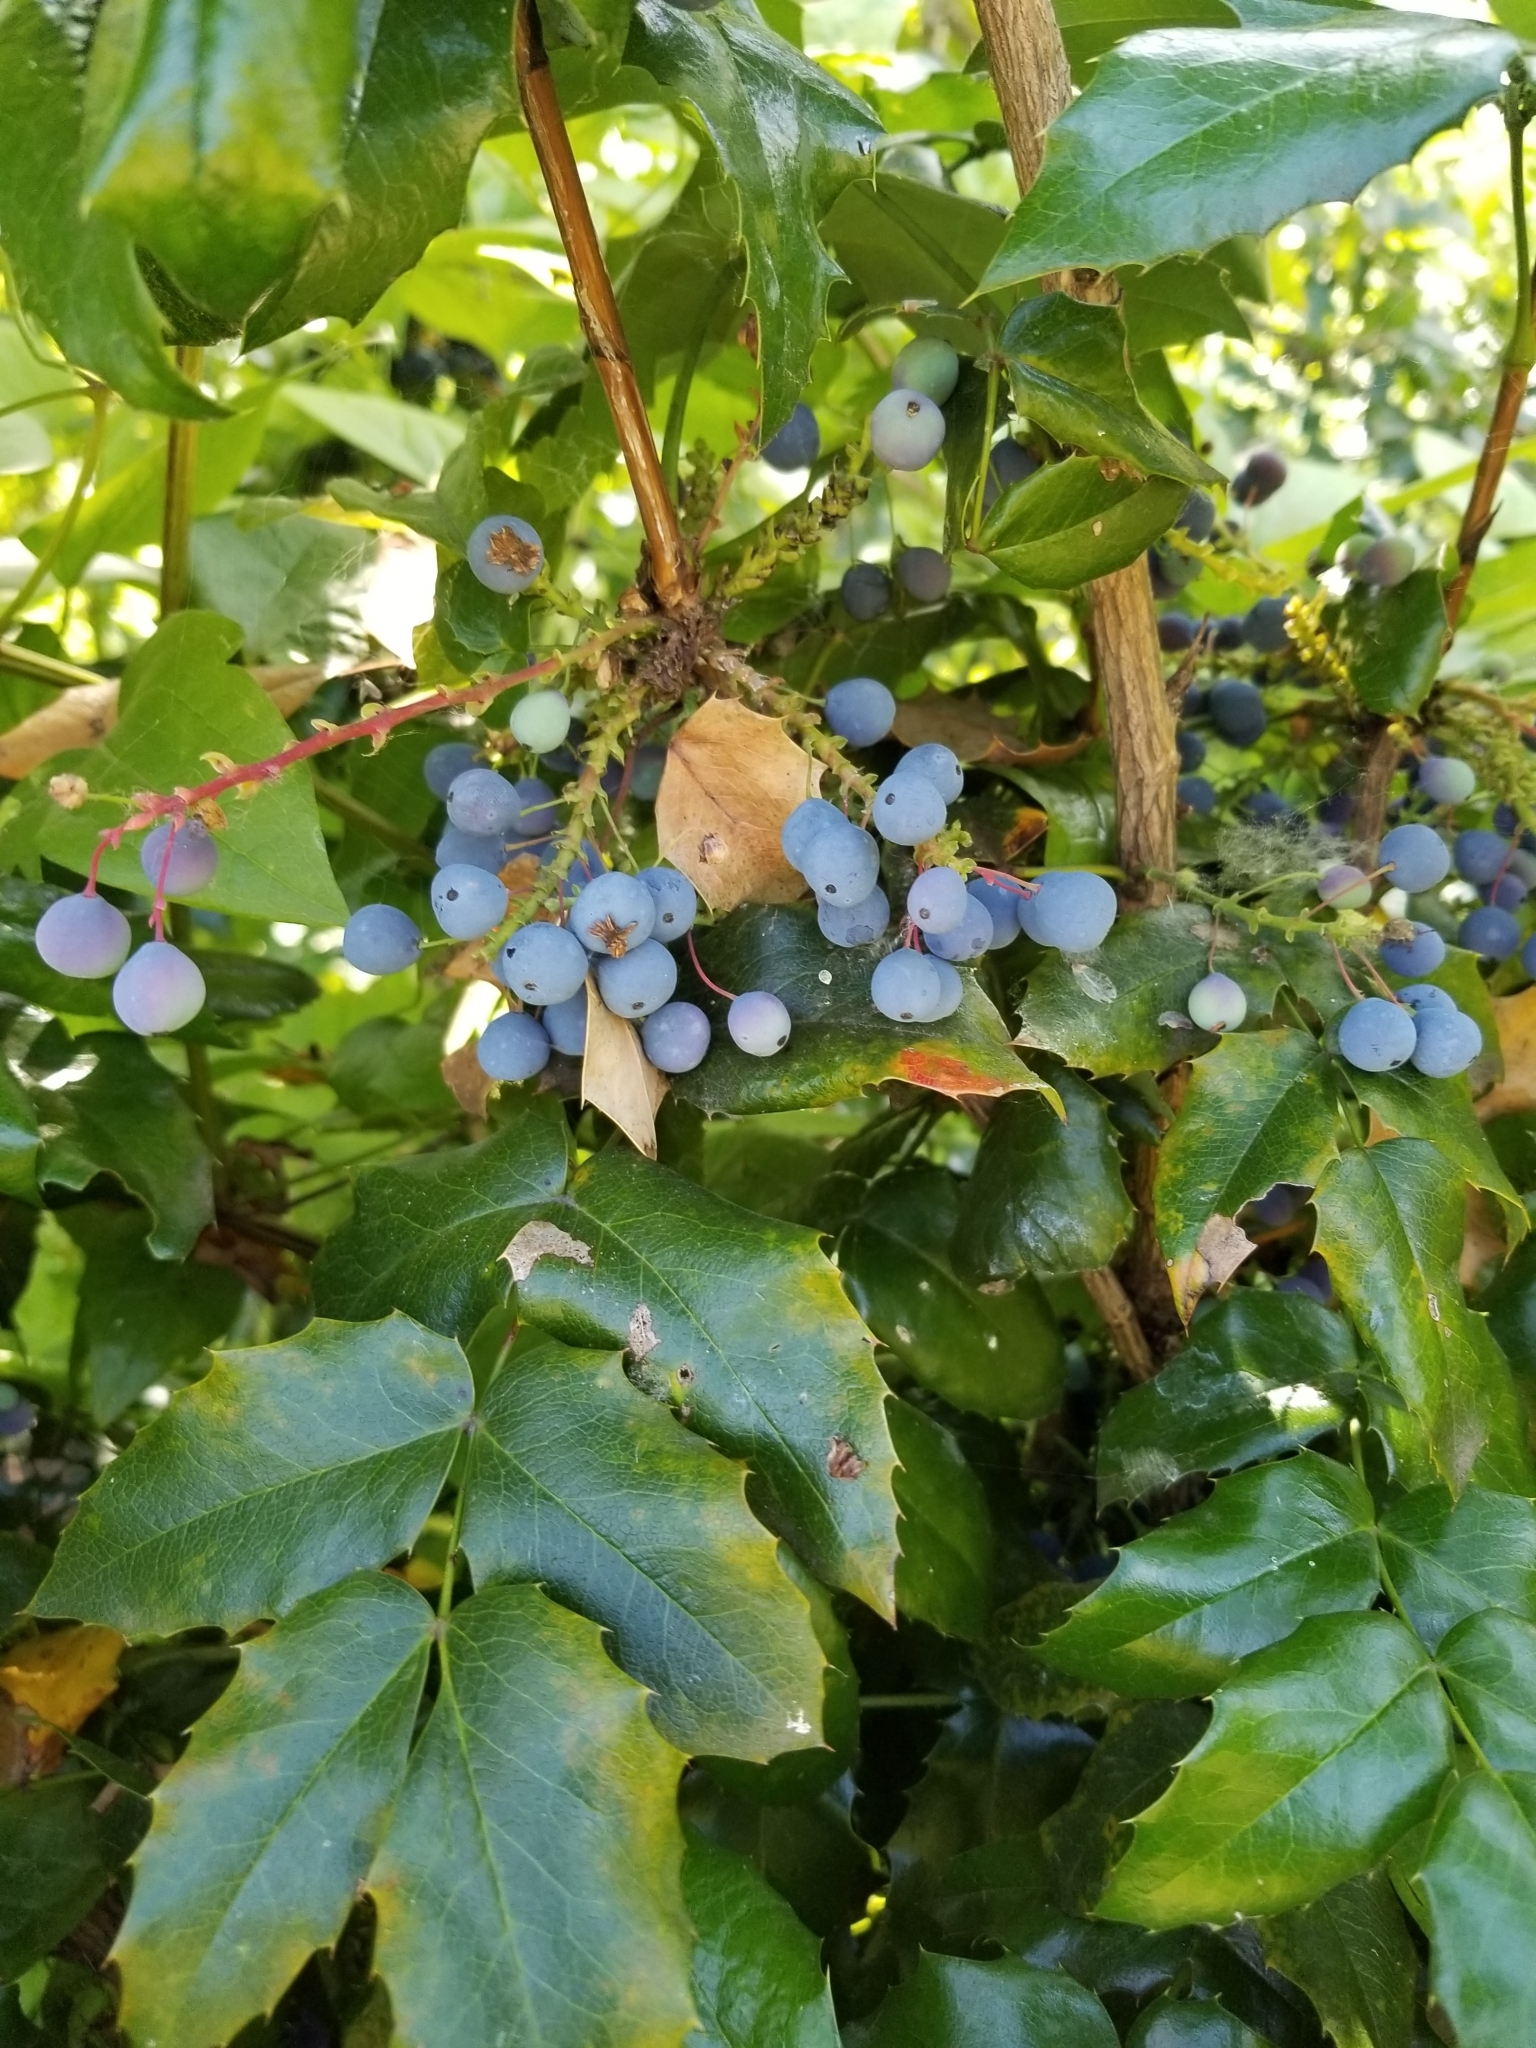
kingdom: Plantae
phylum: Tracheophyta
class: Magnoliopsida
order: Ranunculales
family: Berberidaceae
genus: Mahonia
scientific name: Mahonia aquifolium
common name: Oregon-grape
